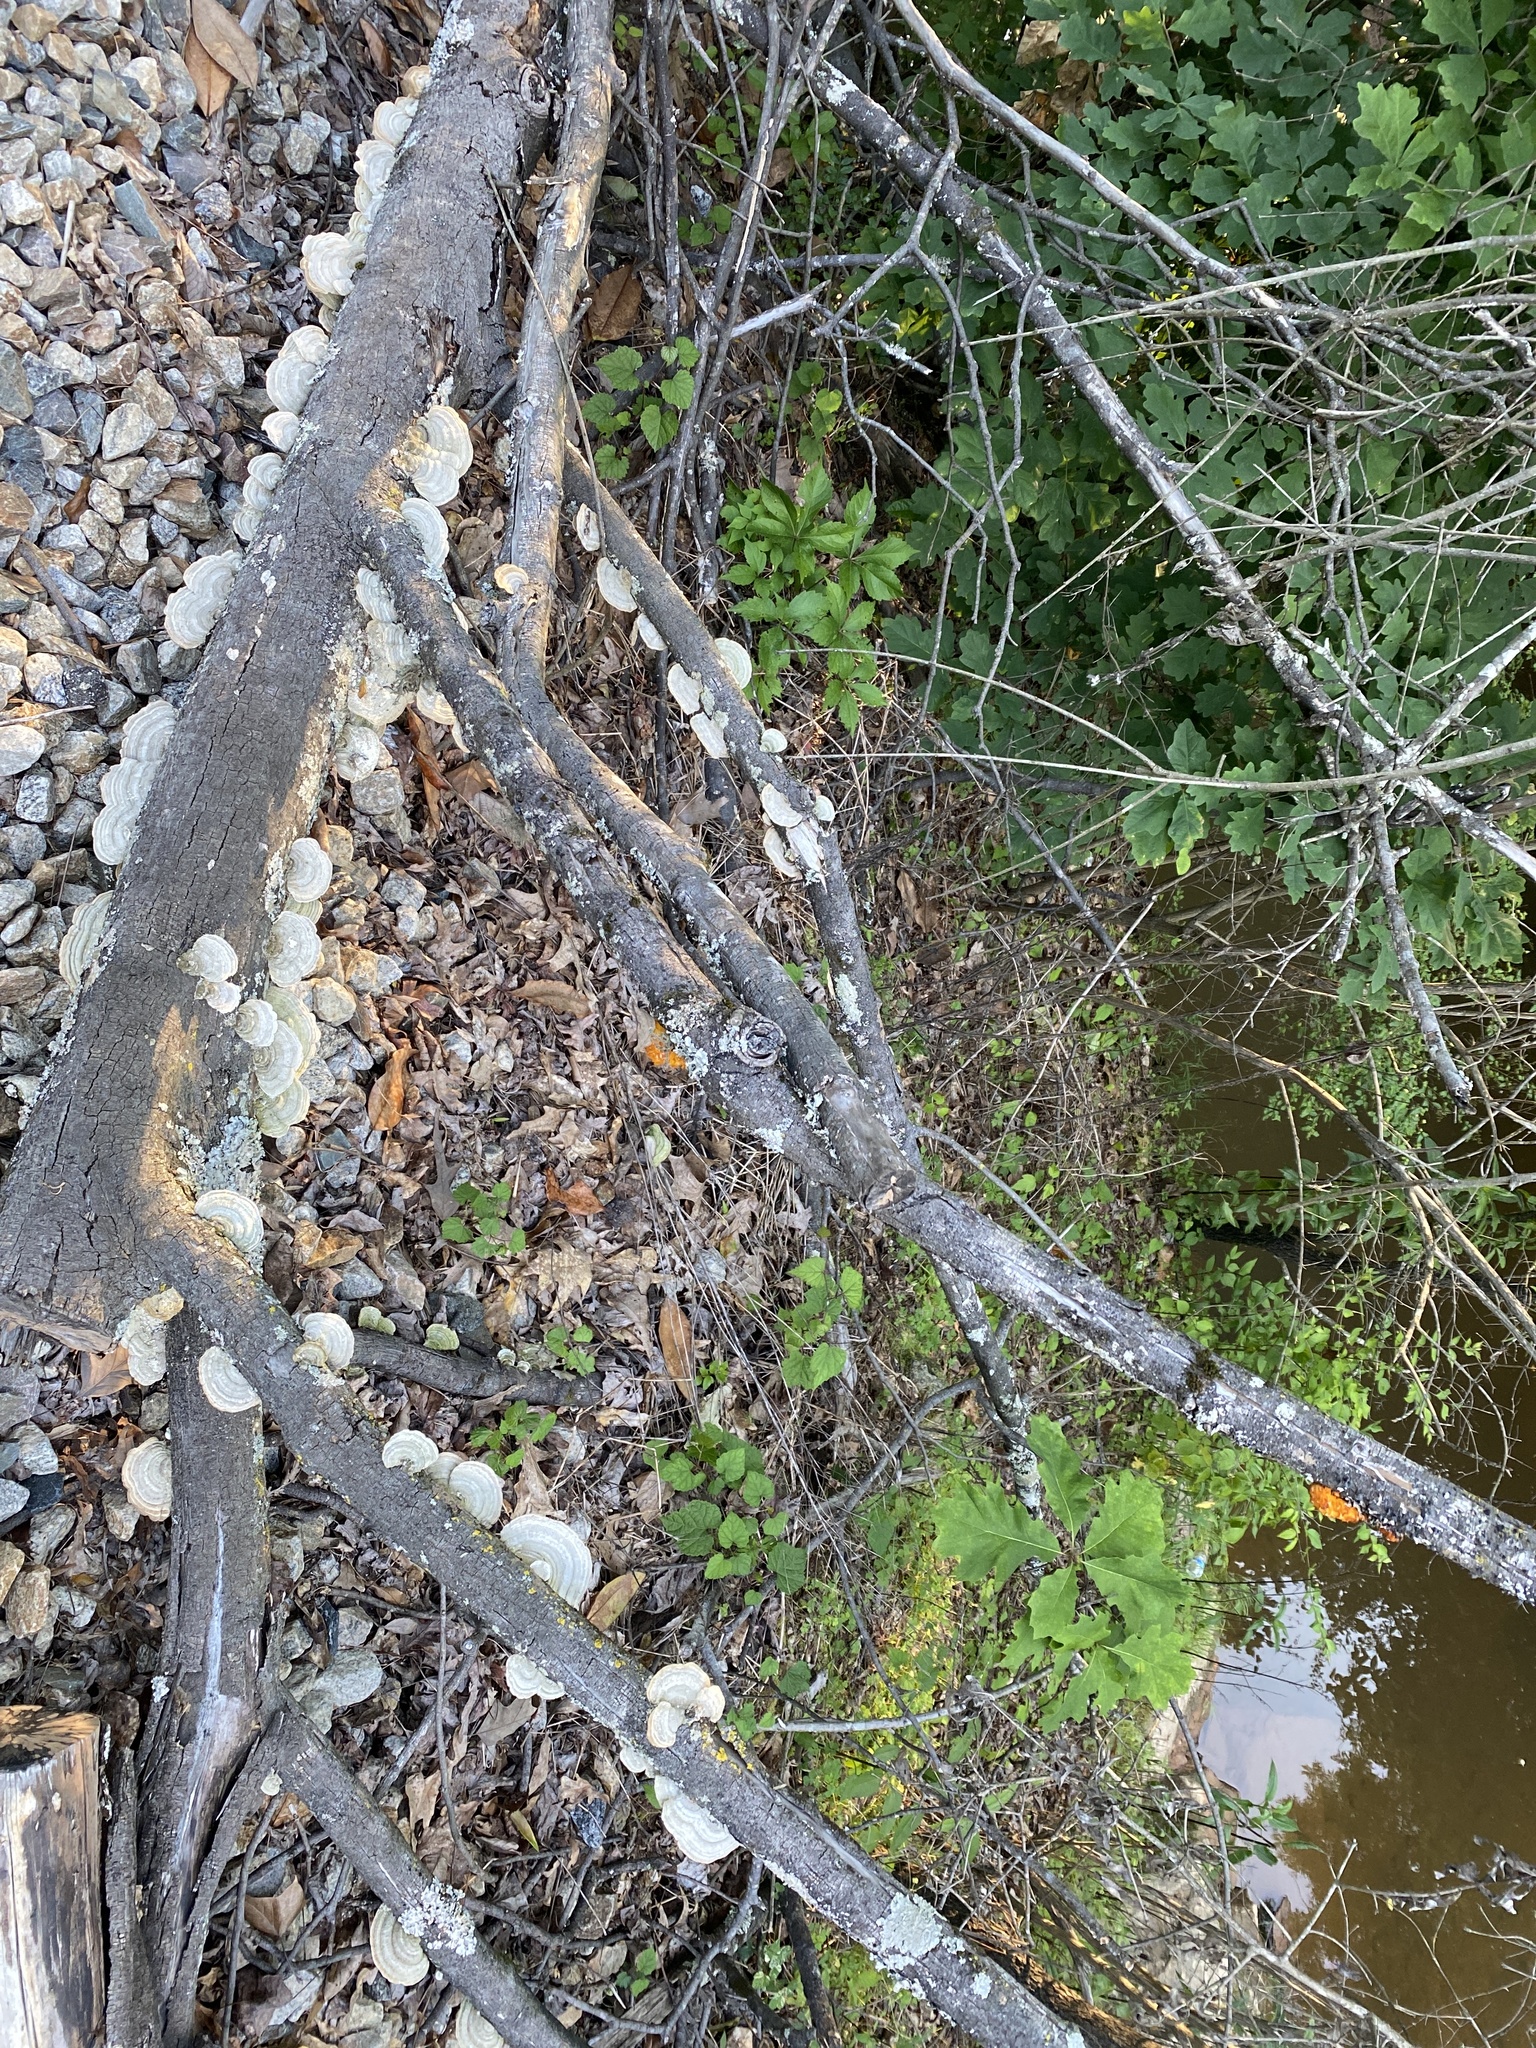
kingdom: Fungi
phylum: Basidiomycota
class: Tremellomycetes
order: Tremellales
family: Tremellaceae
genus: Tremella
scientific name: Tremella mesenterica
